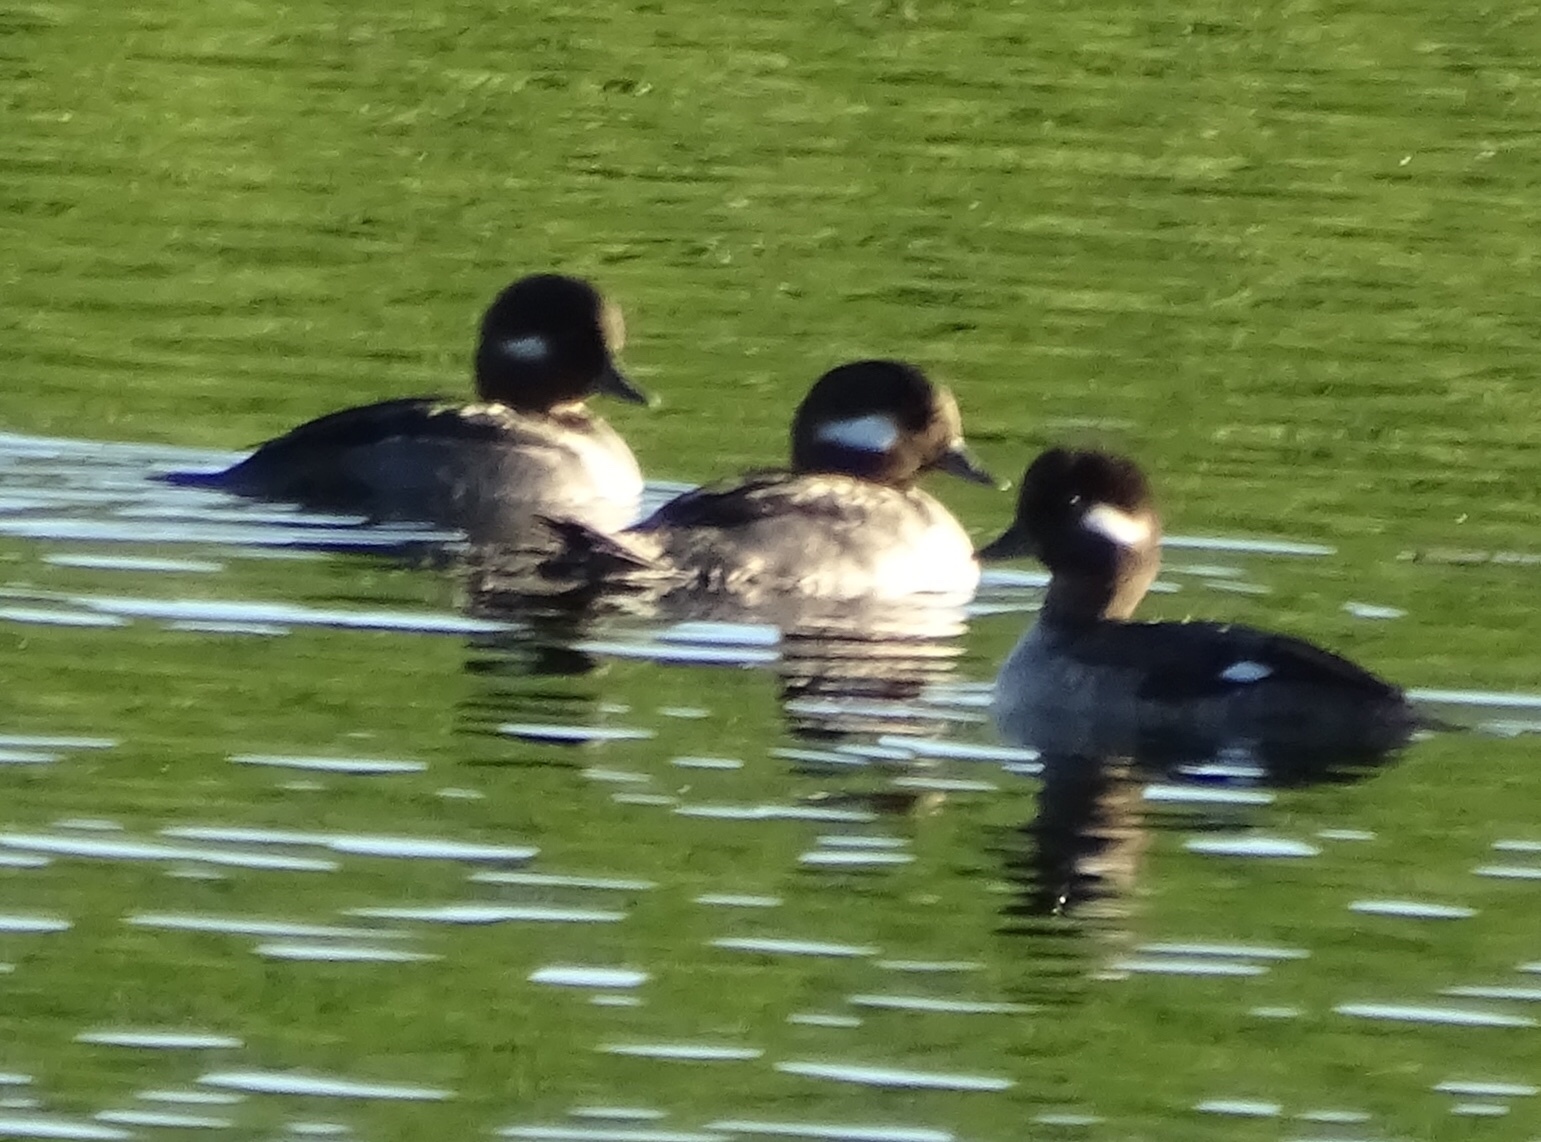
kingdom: Animalia
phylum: Chordata
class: Aves
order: Anseriformes
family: Anatidae
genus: Bucephala
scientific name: Bucephala albeola
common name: Bufflehead
